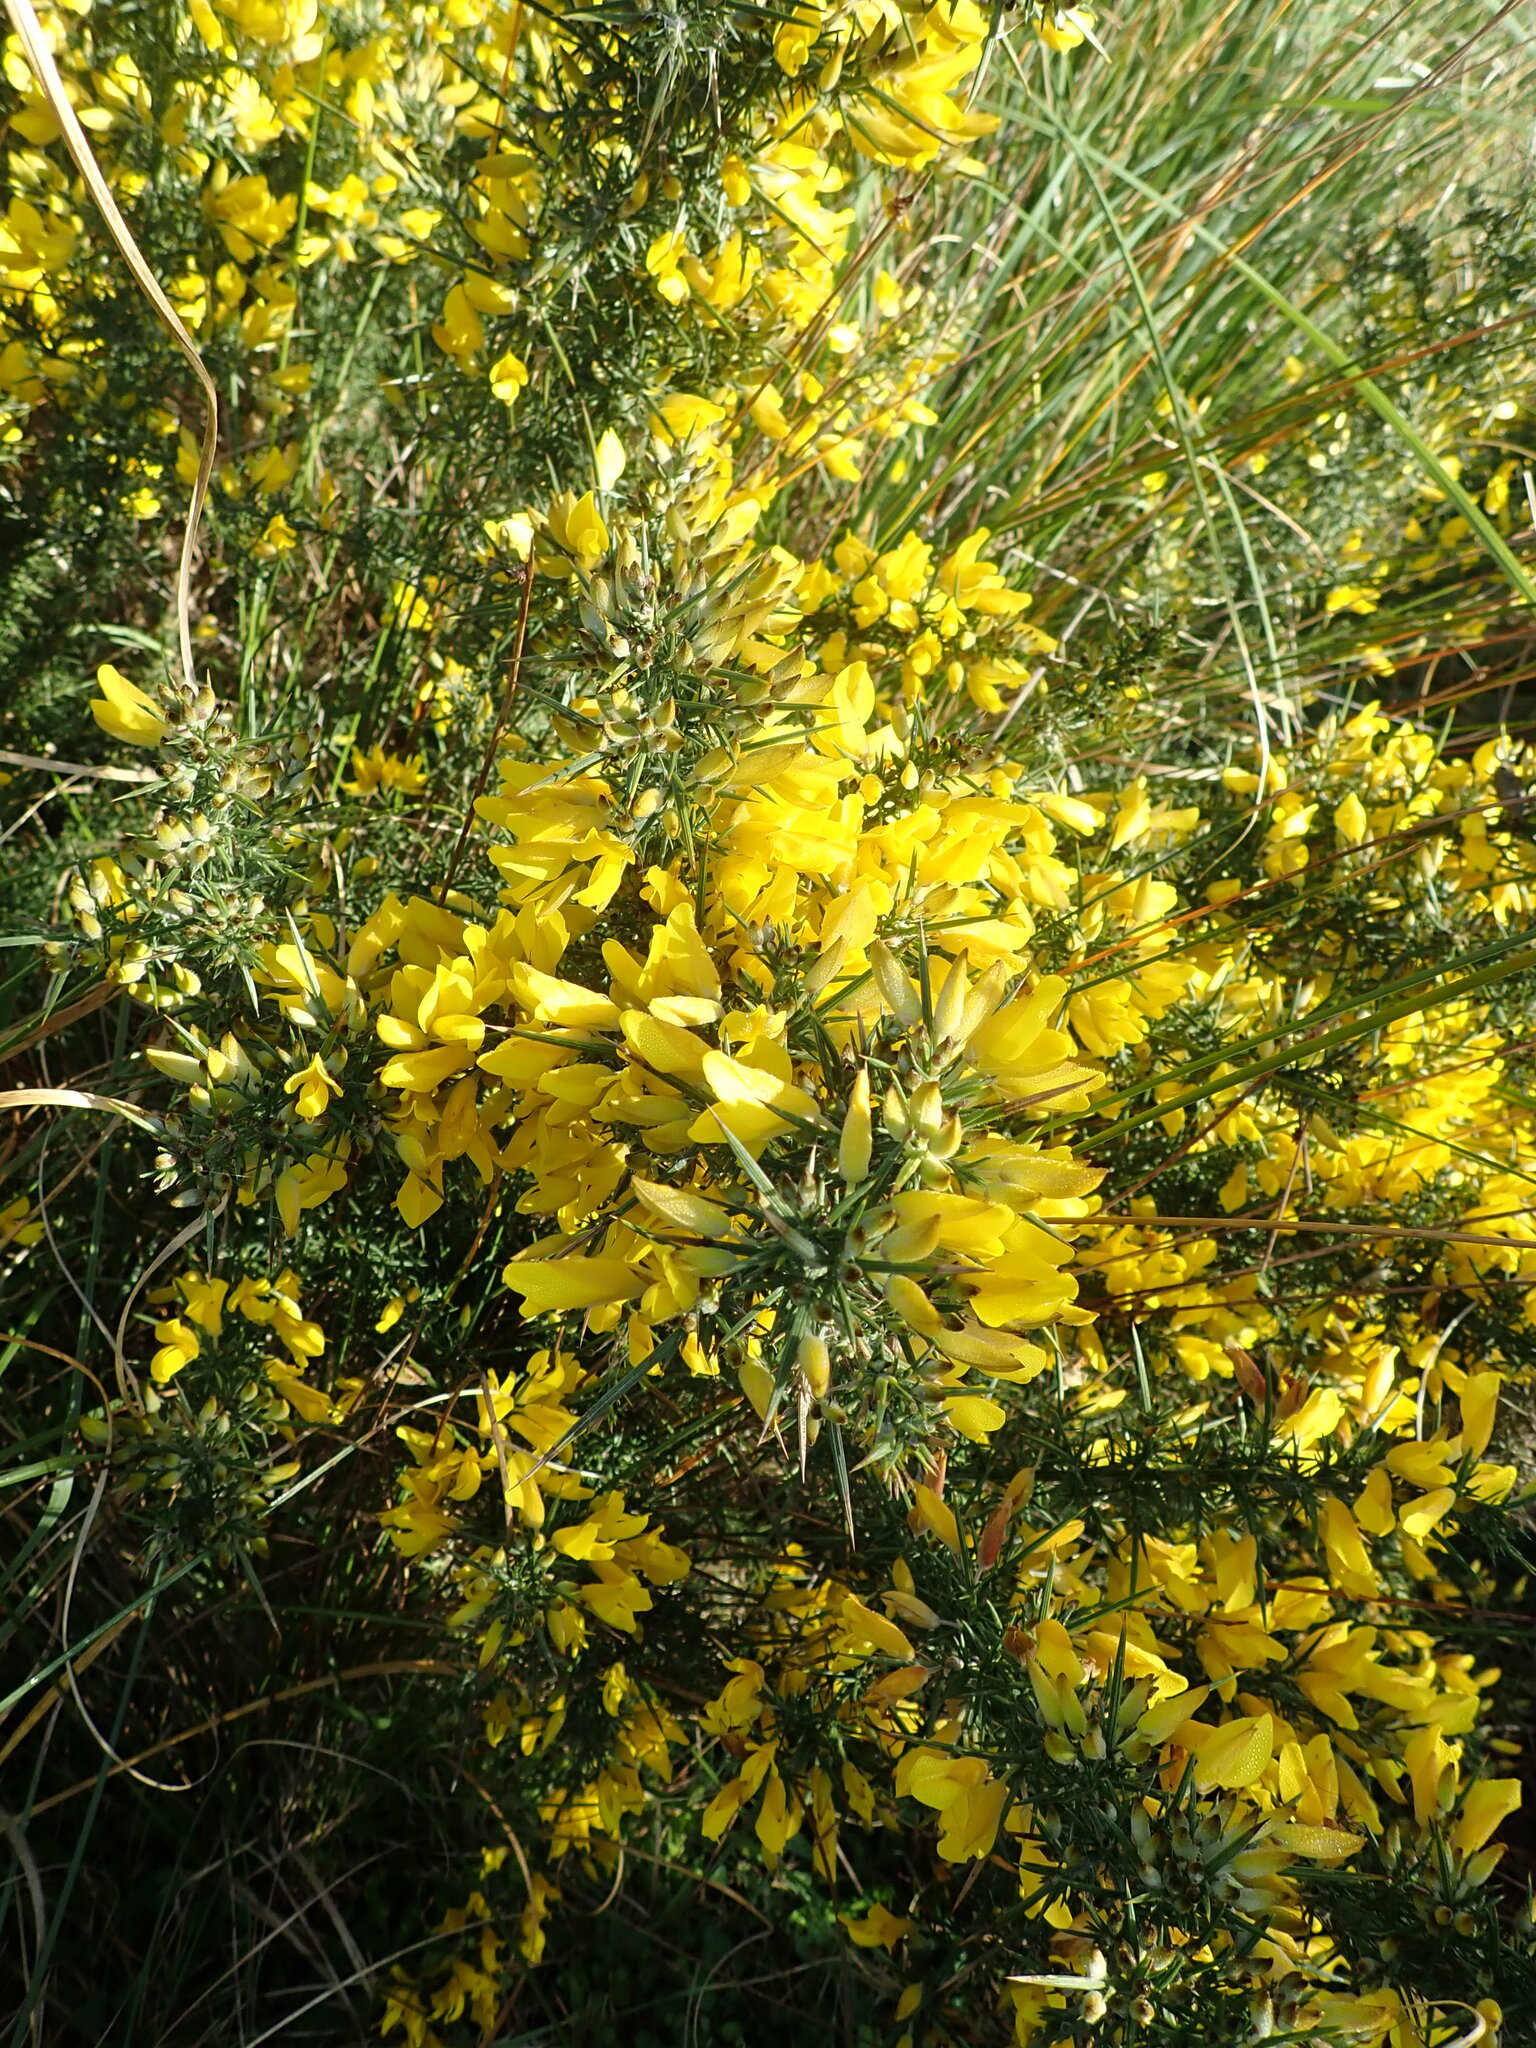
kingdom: Plantae
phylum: Tracheophyta
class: Magnoliopsida
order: Fabales
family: Fabaceae
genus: Ulex
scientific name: Ulex europaeus
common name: Common gorse
